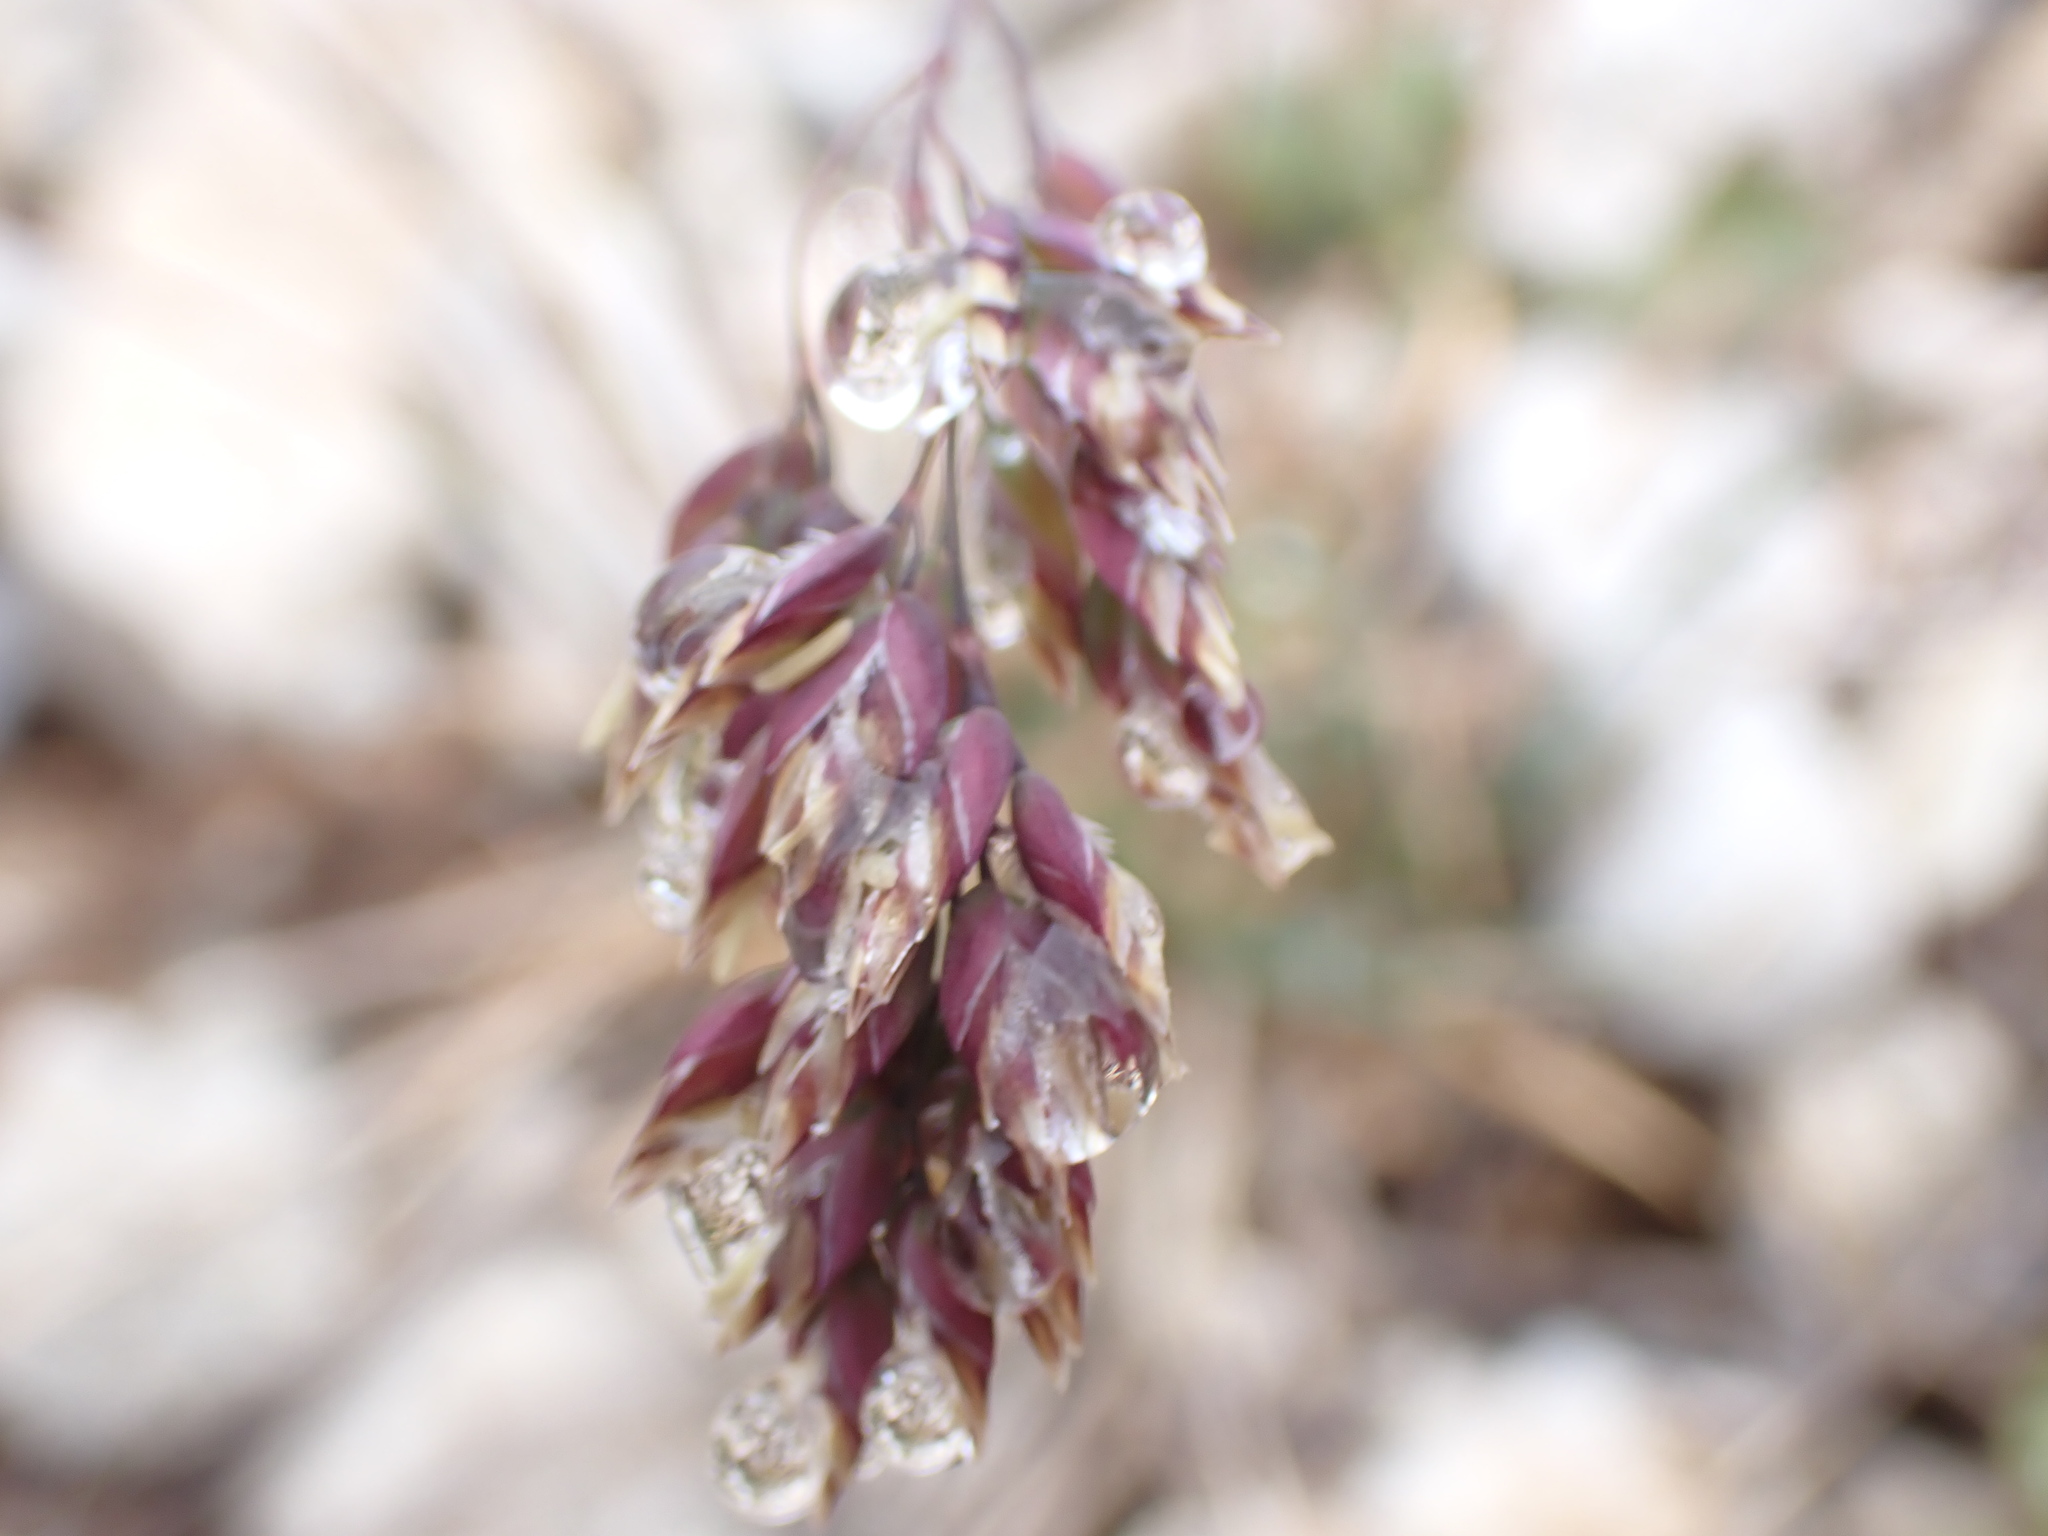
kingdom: Plantae
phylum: Tracheophyta
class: Liliopsida
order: Poales
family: Poaceae
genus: Poa
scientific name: Poa alpina
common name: Alpine bluegrass
